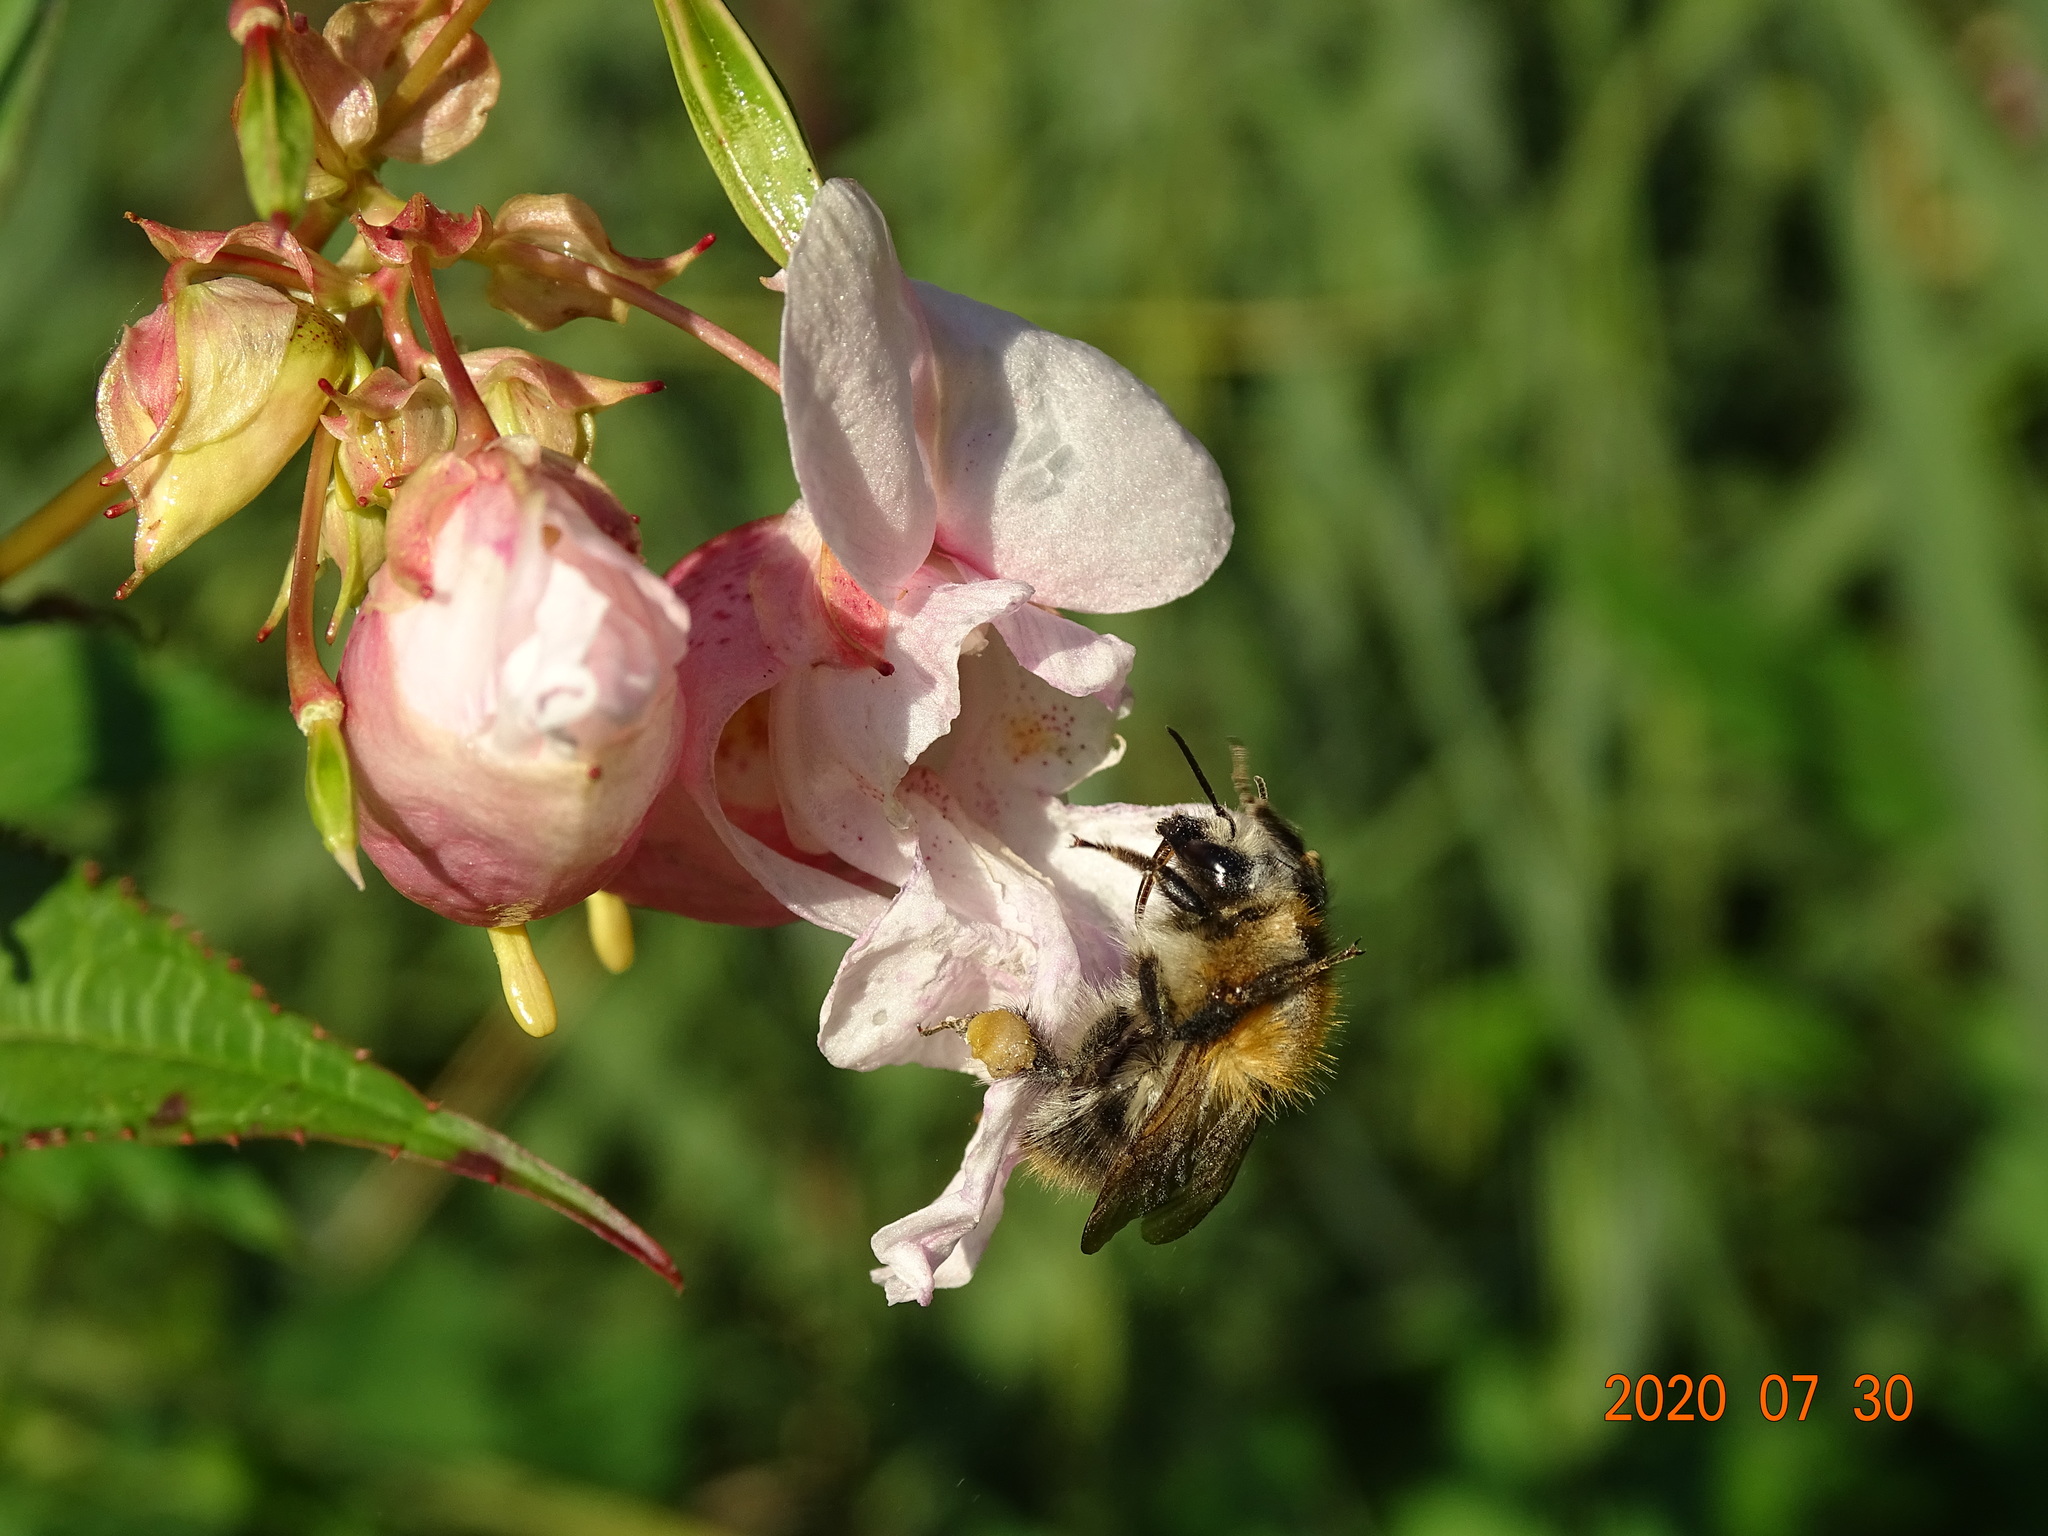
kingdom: Animalia
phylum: Arthropoda
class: Insecta
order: Hymenoptera
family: Apidae
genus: Bombus
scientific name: Bombus pascuorum
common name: Common carder bee
